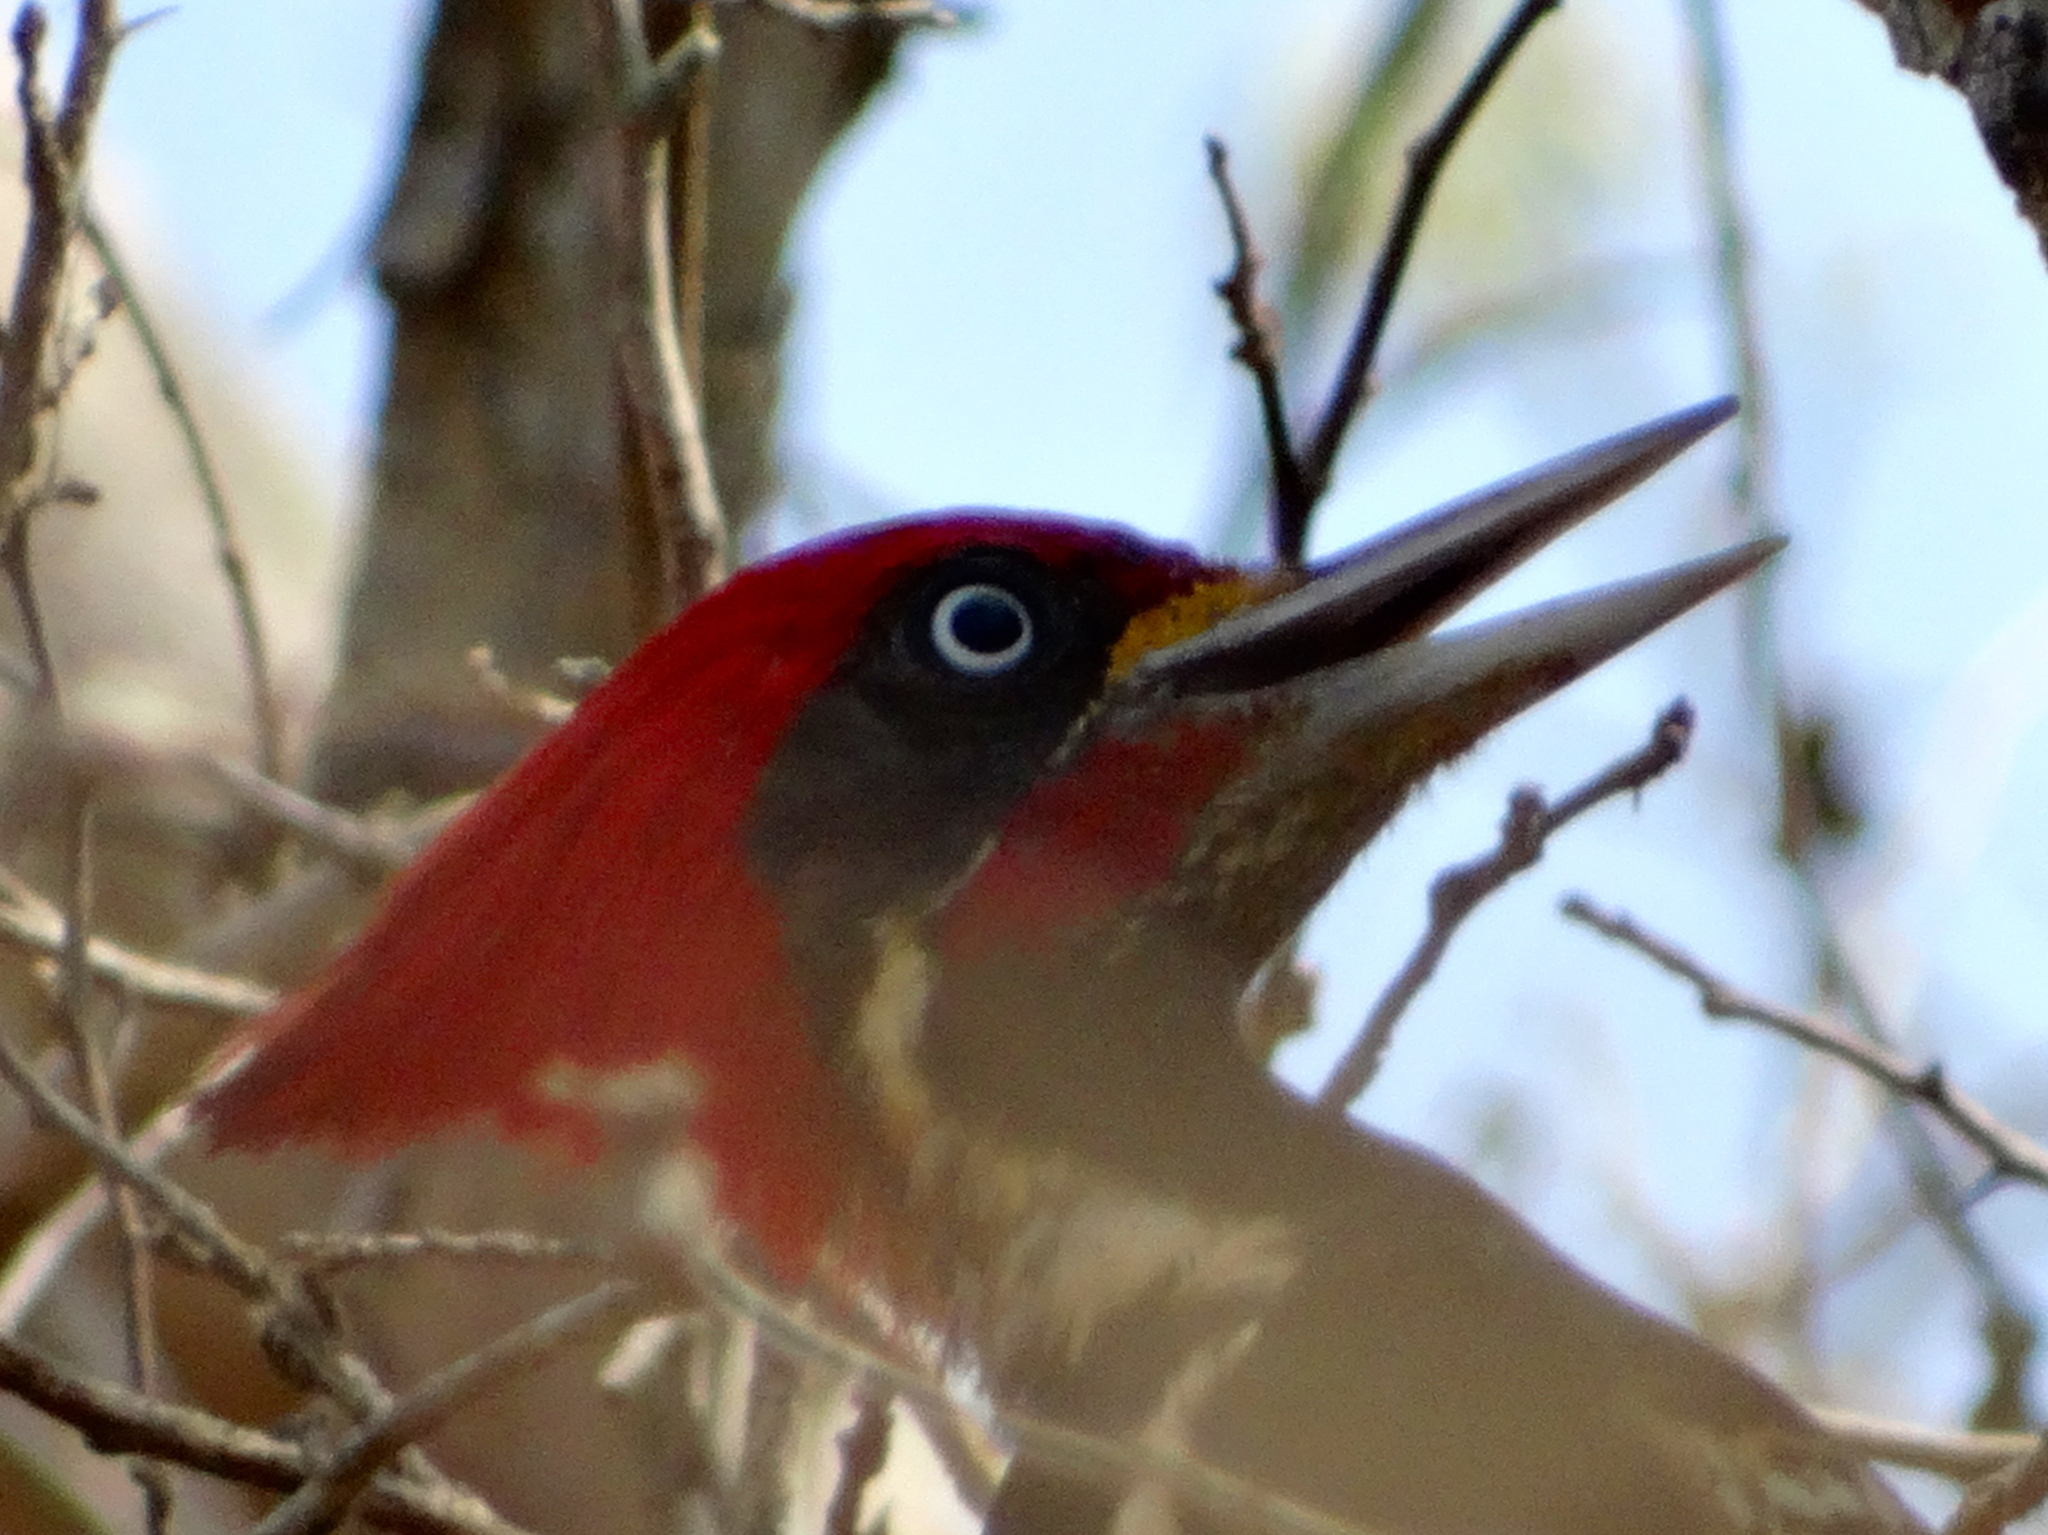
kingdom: Animalia
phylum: Chordata
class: Aves
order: Piciformes
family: Picidae
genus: Dryocopus
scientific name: Dryocopus lineatus
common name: Lineated woodpecker
